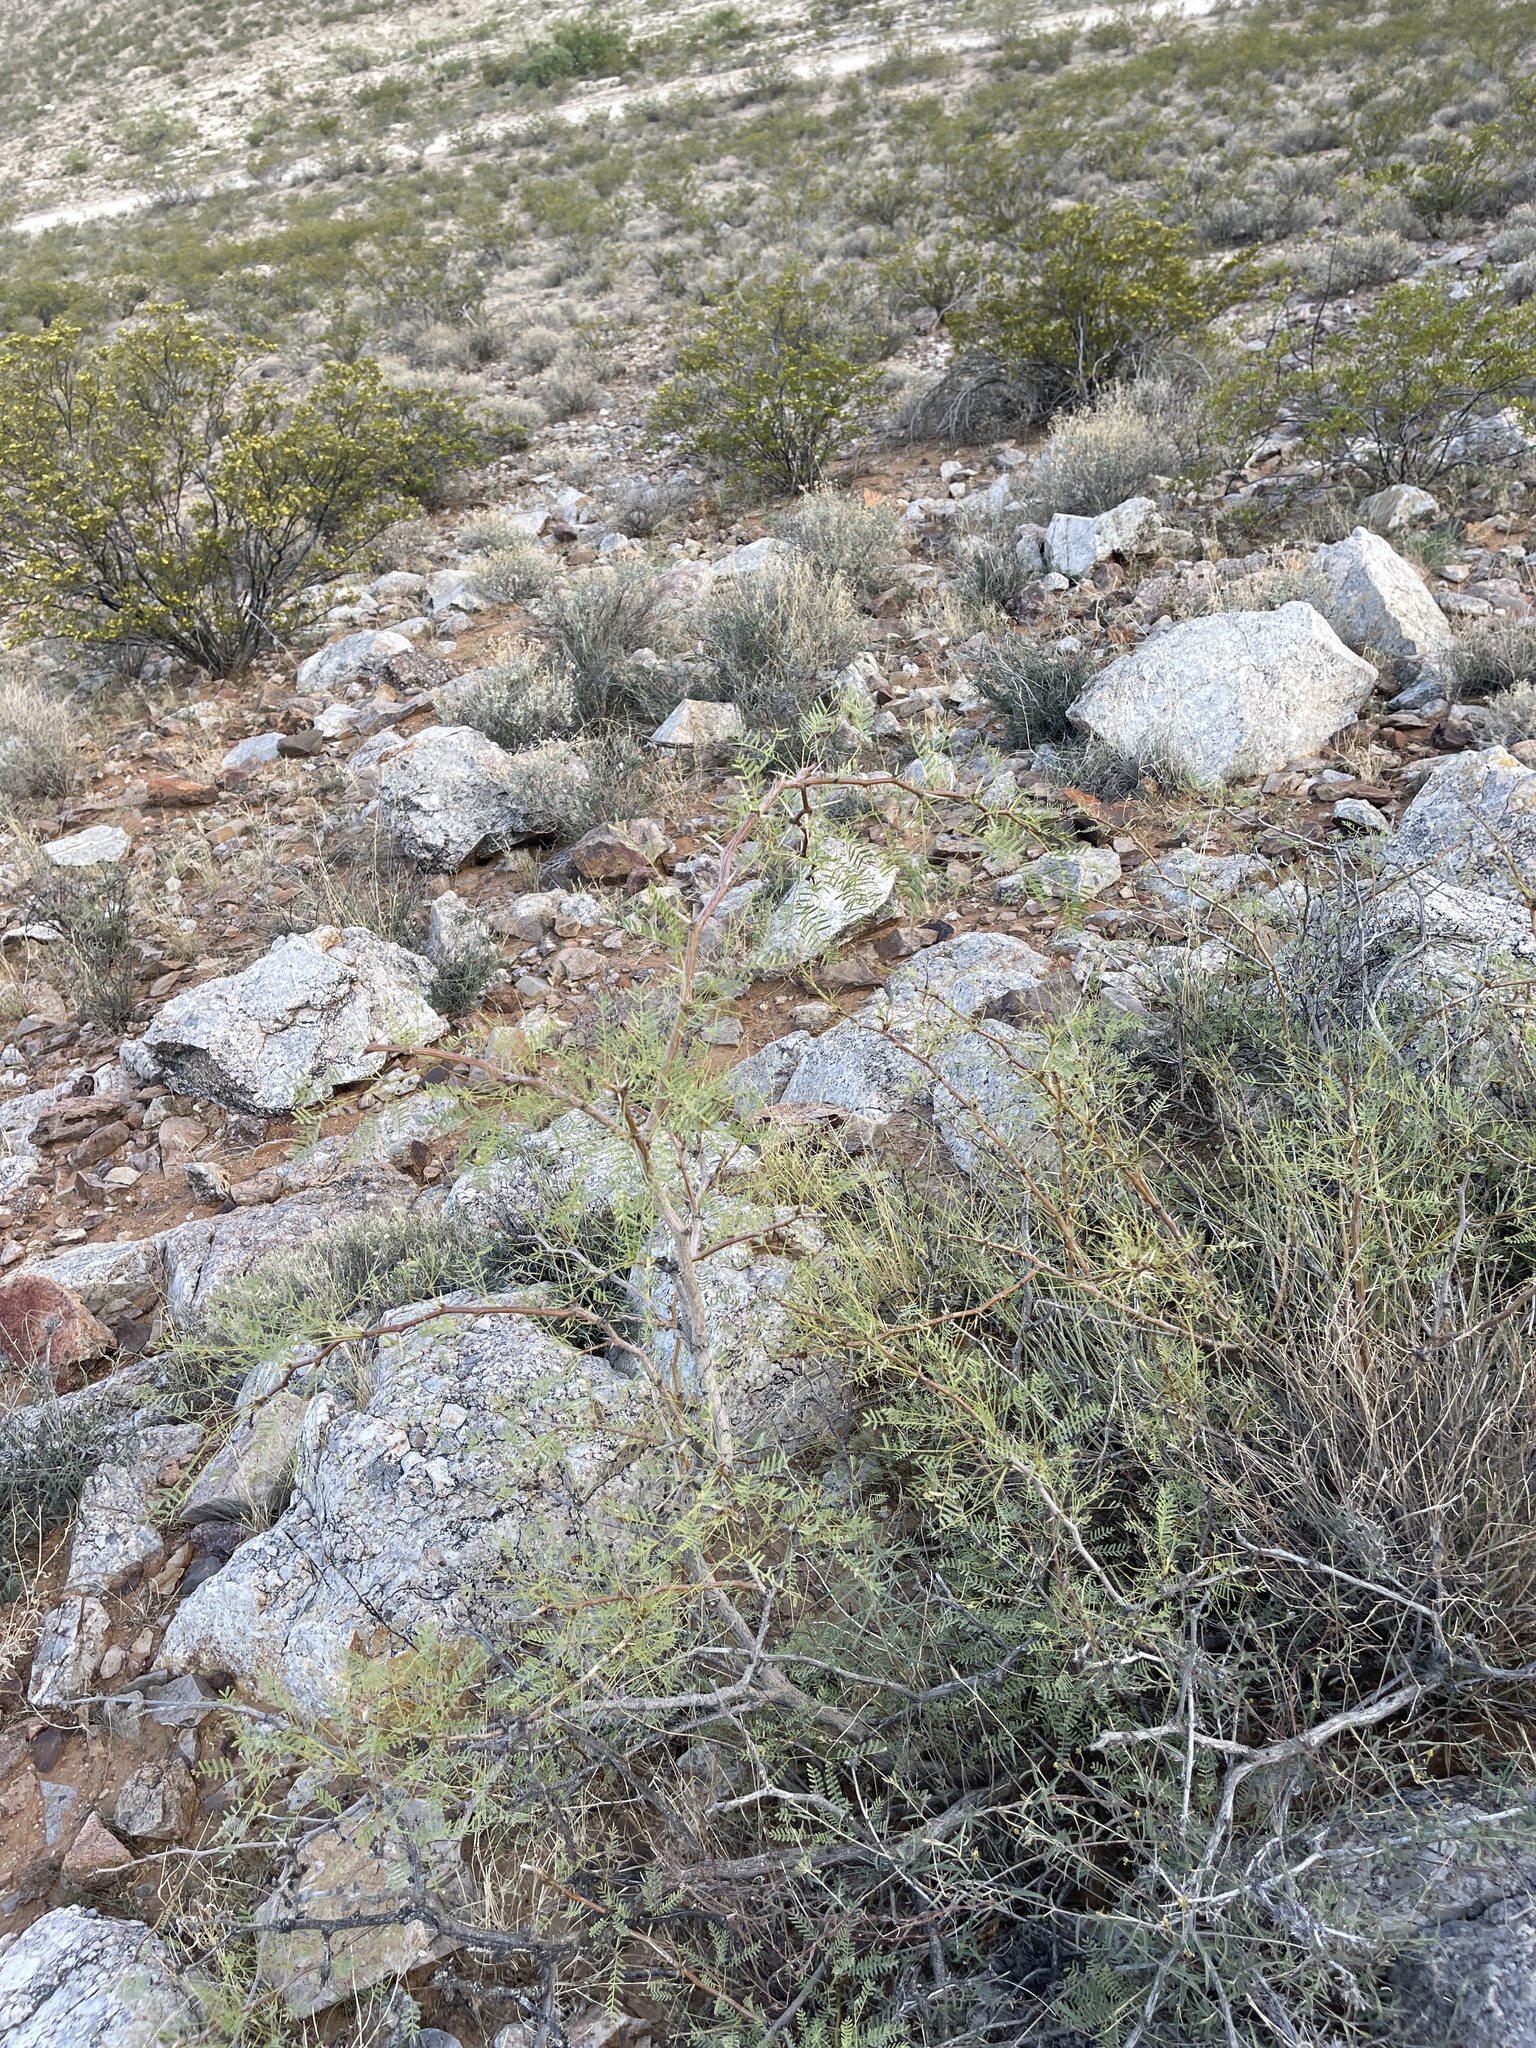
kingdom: Plantae
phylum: Tracheophyta
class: Magnoliopsida
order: Fabales
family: Fabaceae
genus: Prosopis
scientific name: Prosopis glandulosa
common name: Honey mesquite
